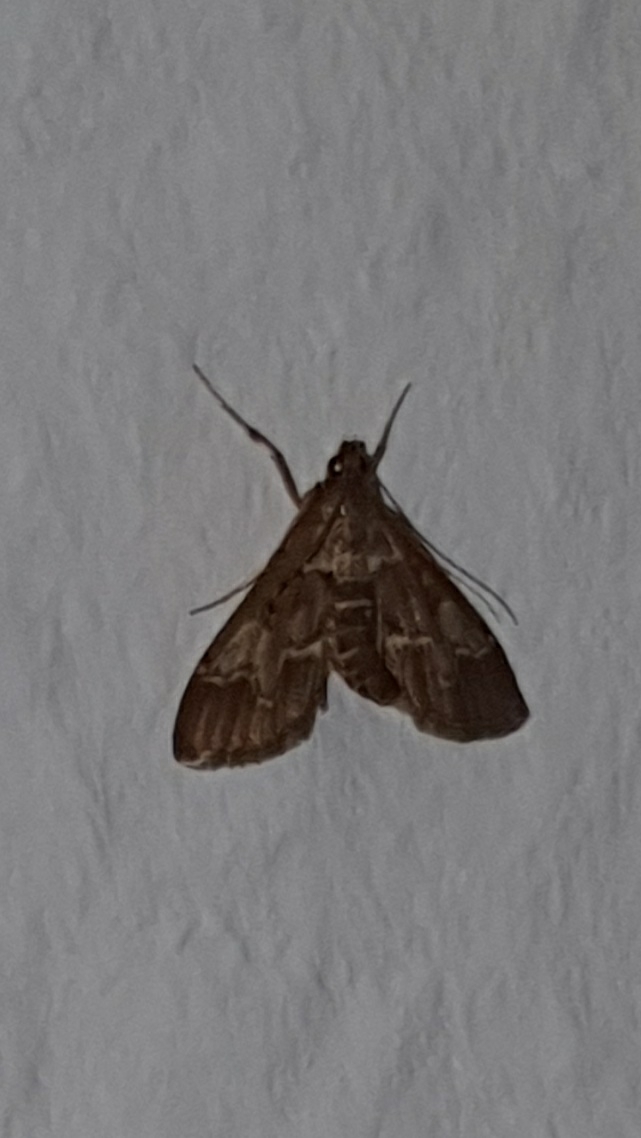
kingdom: Animalia
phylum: Arthropoda
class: Insecta
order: Lepidoptera
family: Crambidae
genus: Duponchelia
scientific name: Duponchelia fovealis
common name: Crambid moth
